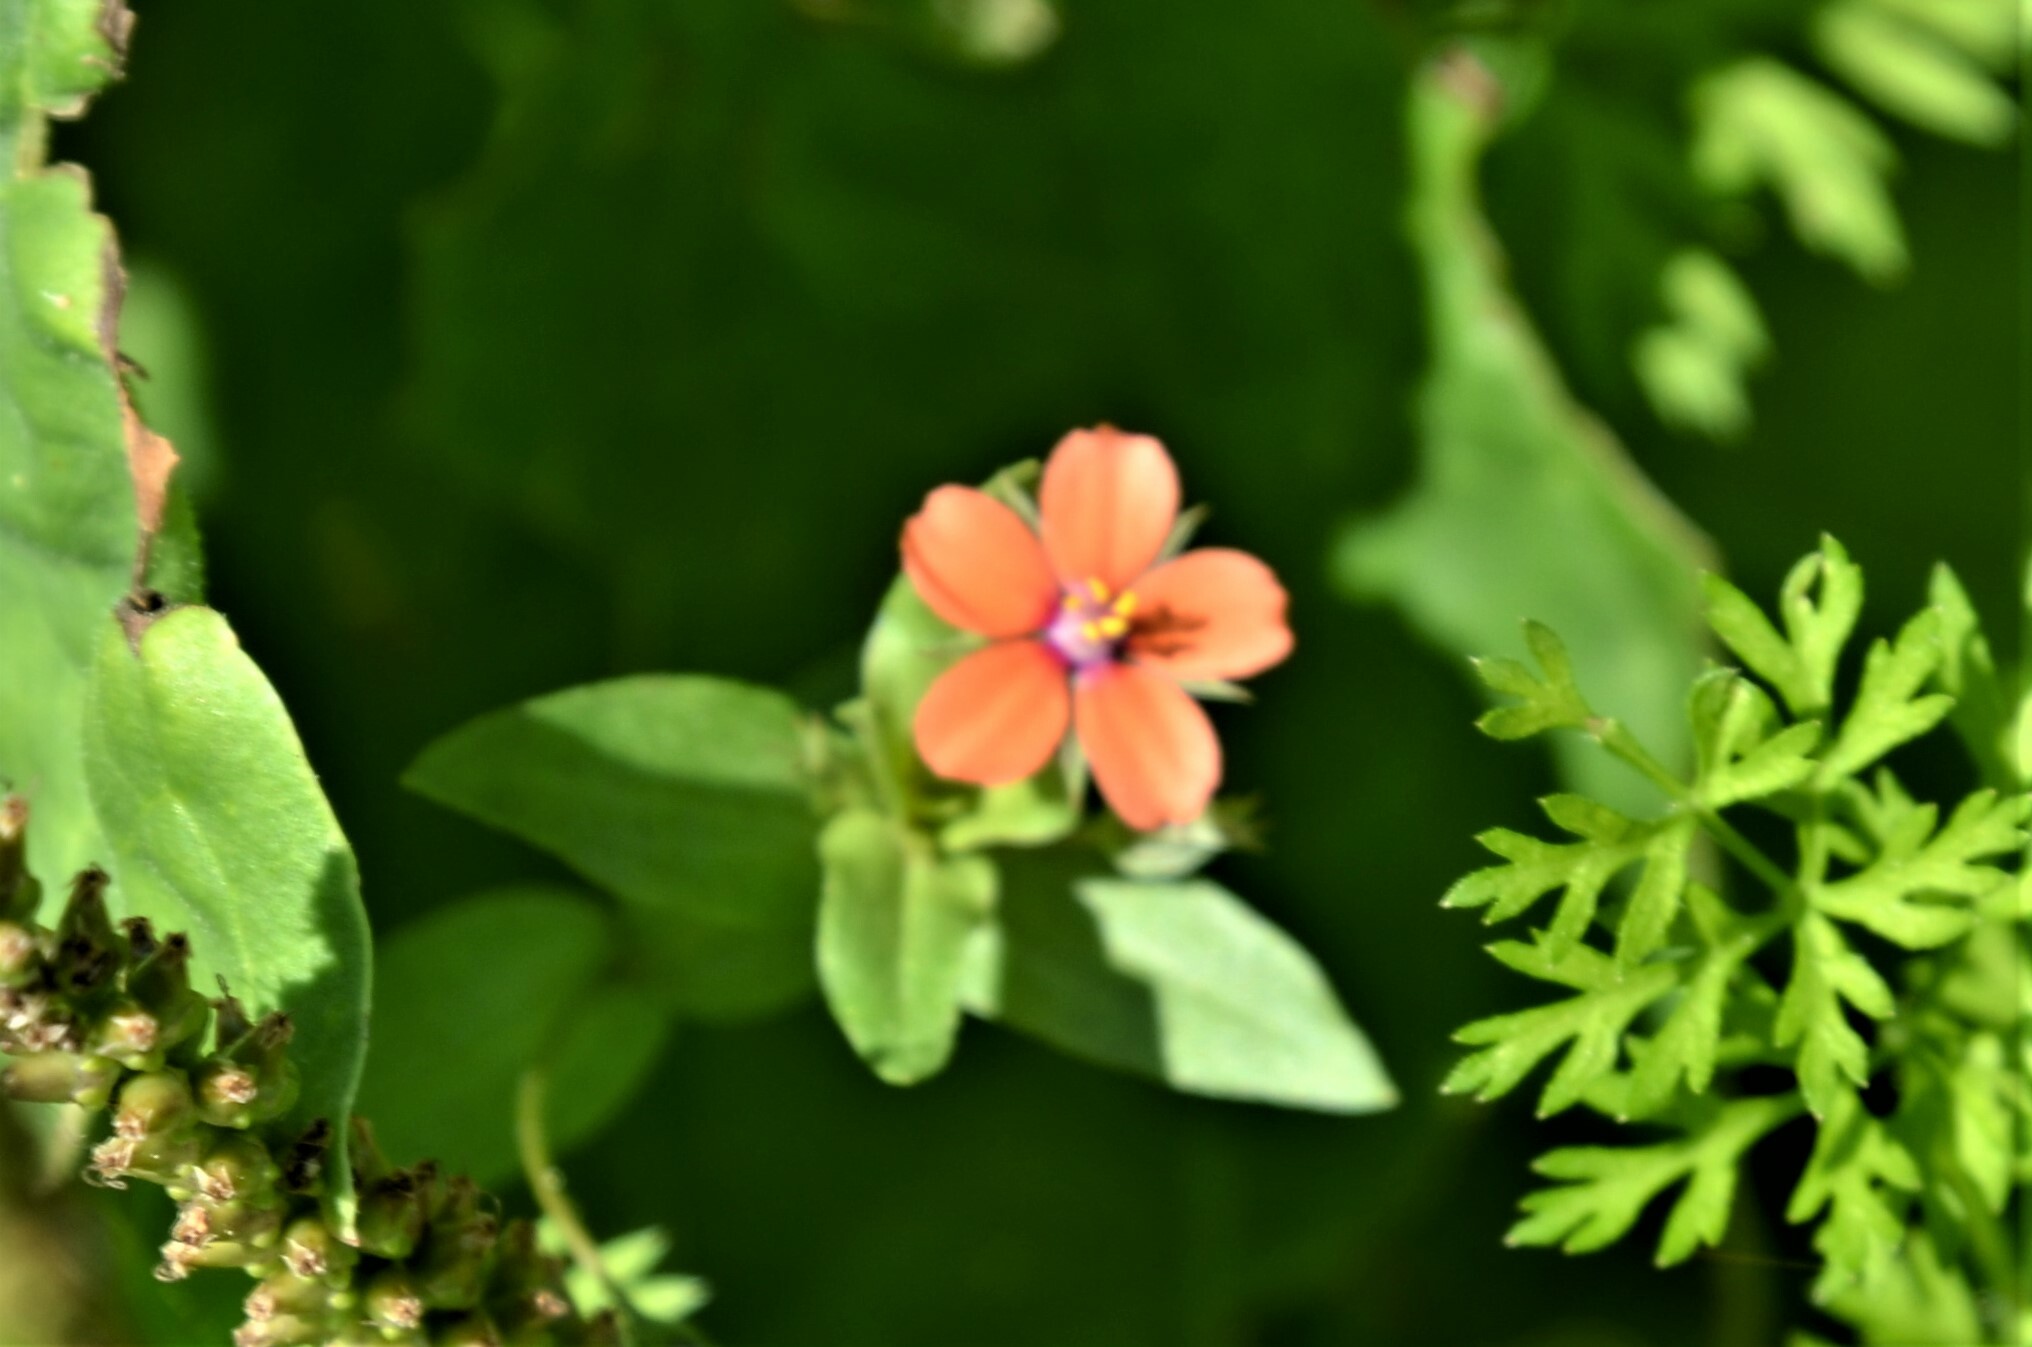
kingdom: Plantae
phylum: Tracheophyta
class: Magnoliopsida
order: Ericales
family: Primulaceae
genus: Lysimachia
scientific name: Lysimachia arvensis
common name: Scarlet pimpernel
